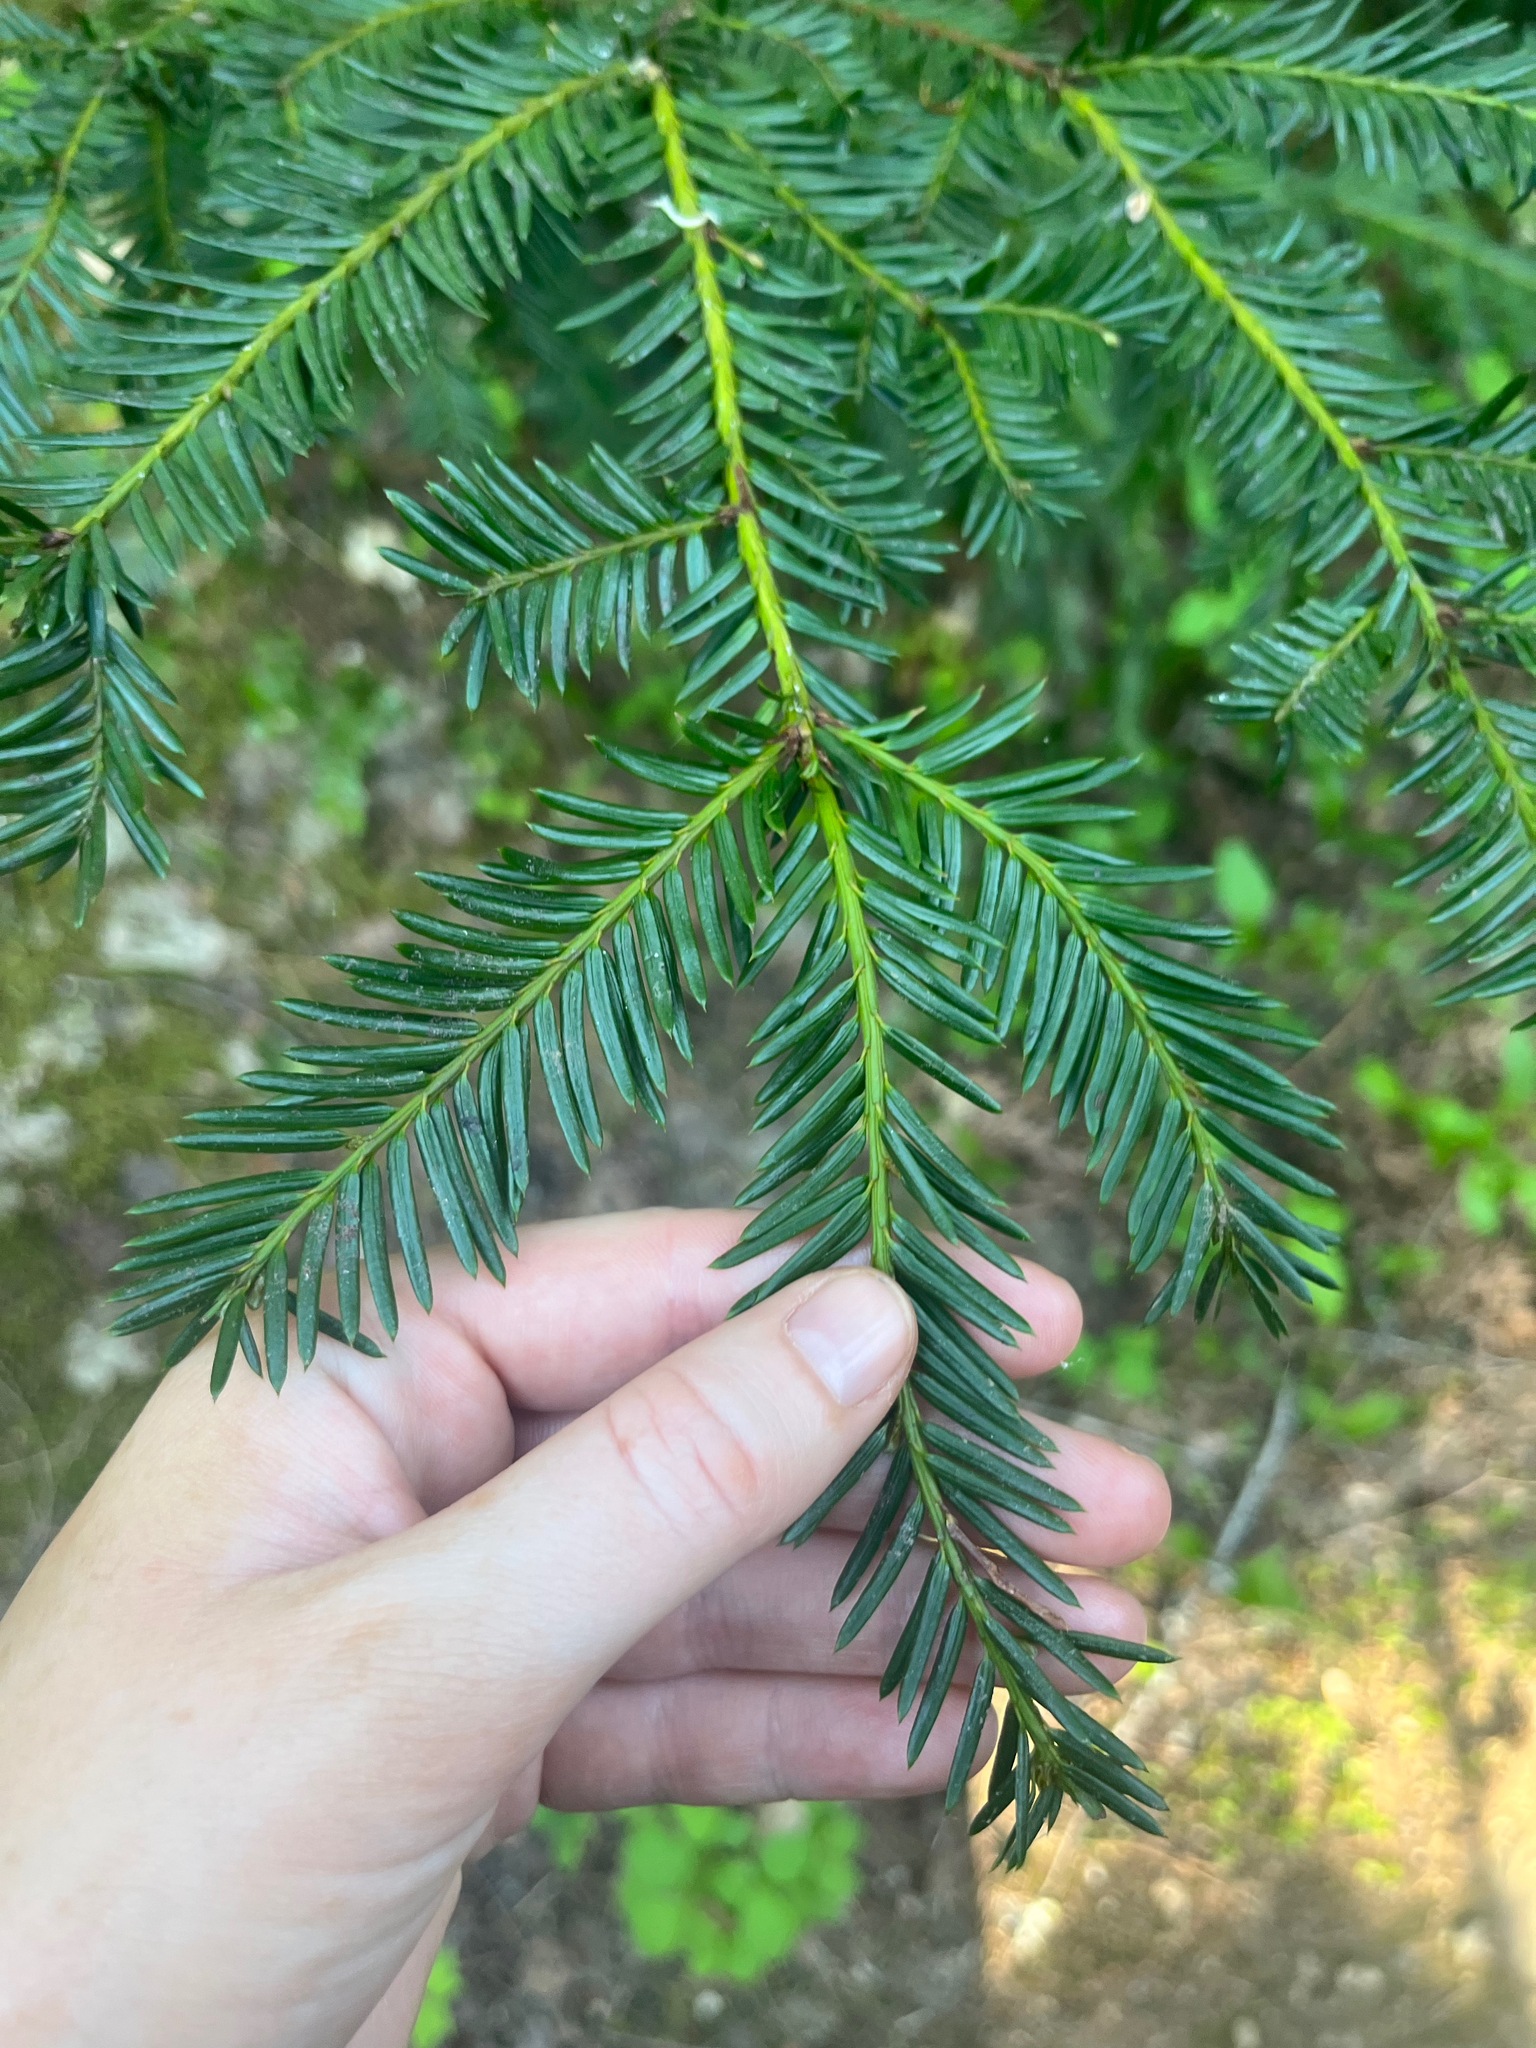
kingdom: Plantae
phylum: Tracheophyta
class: Pinopsida
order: Pinales
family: Taxaceae
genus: Taxus
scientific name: Taxus brevifolia
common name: Pacific yew
